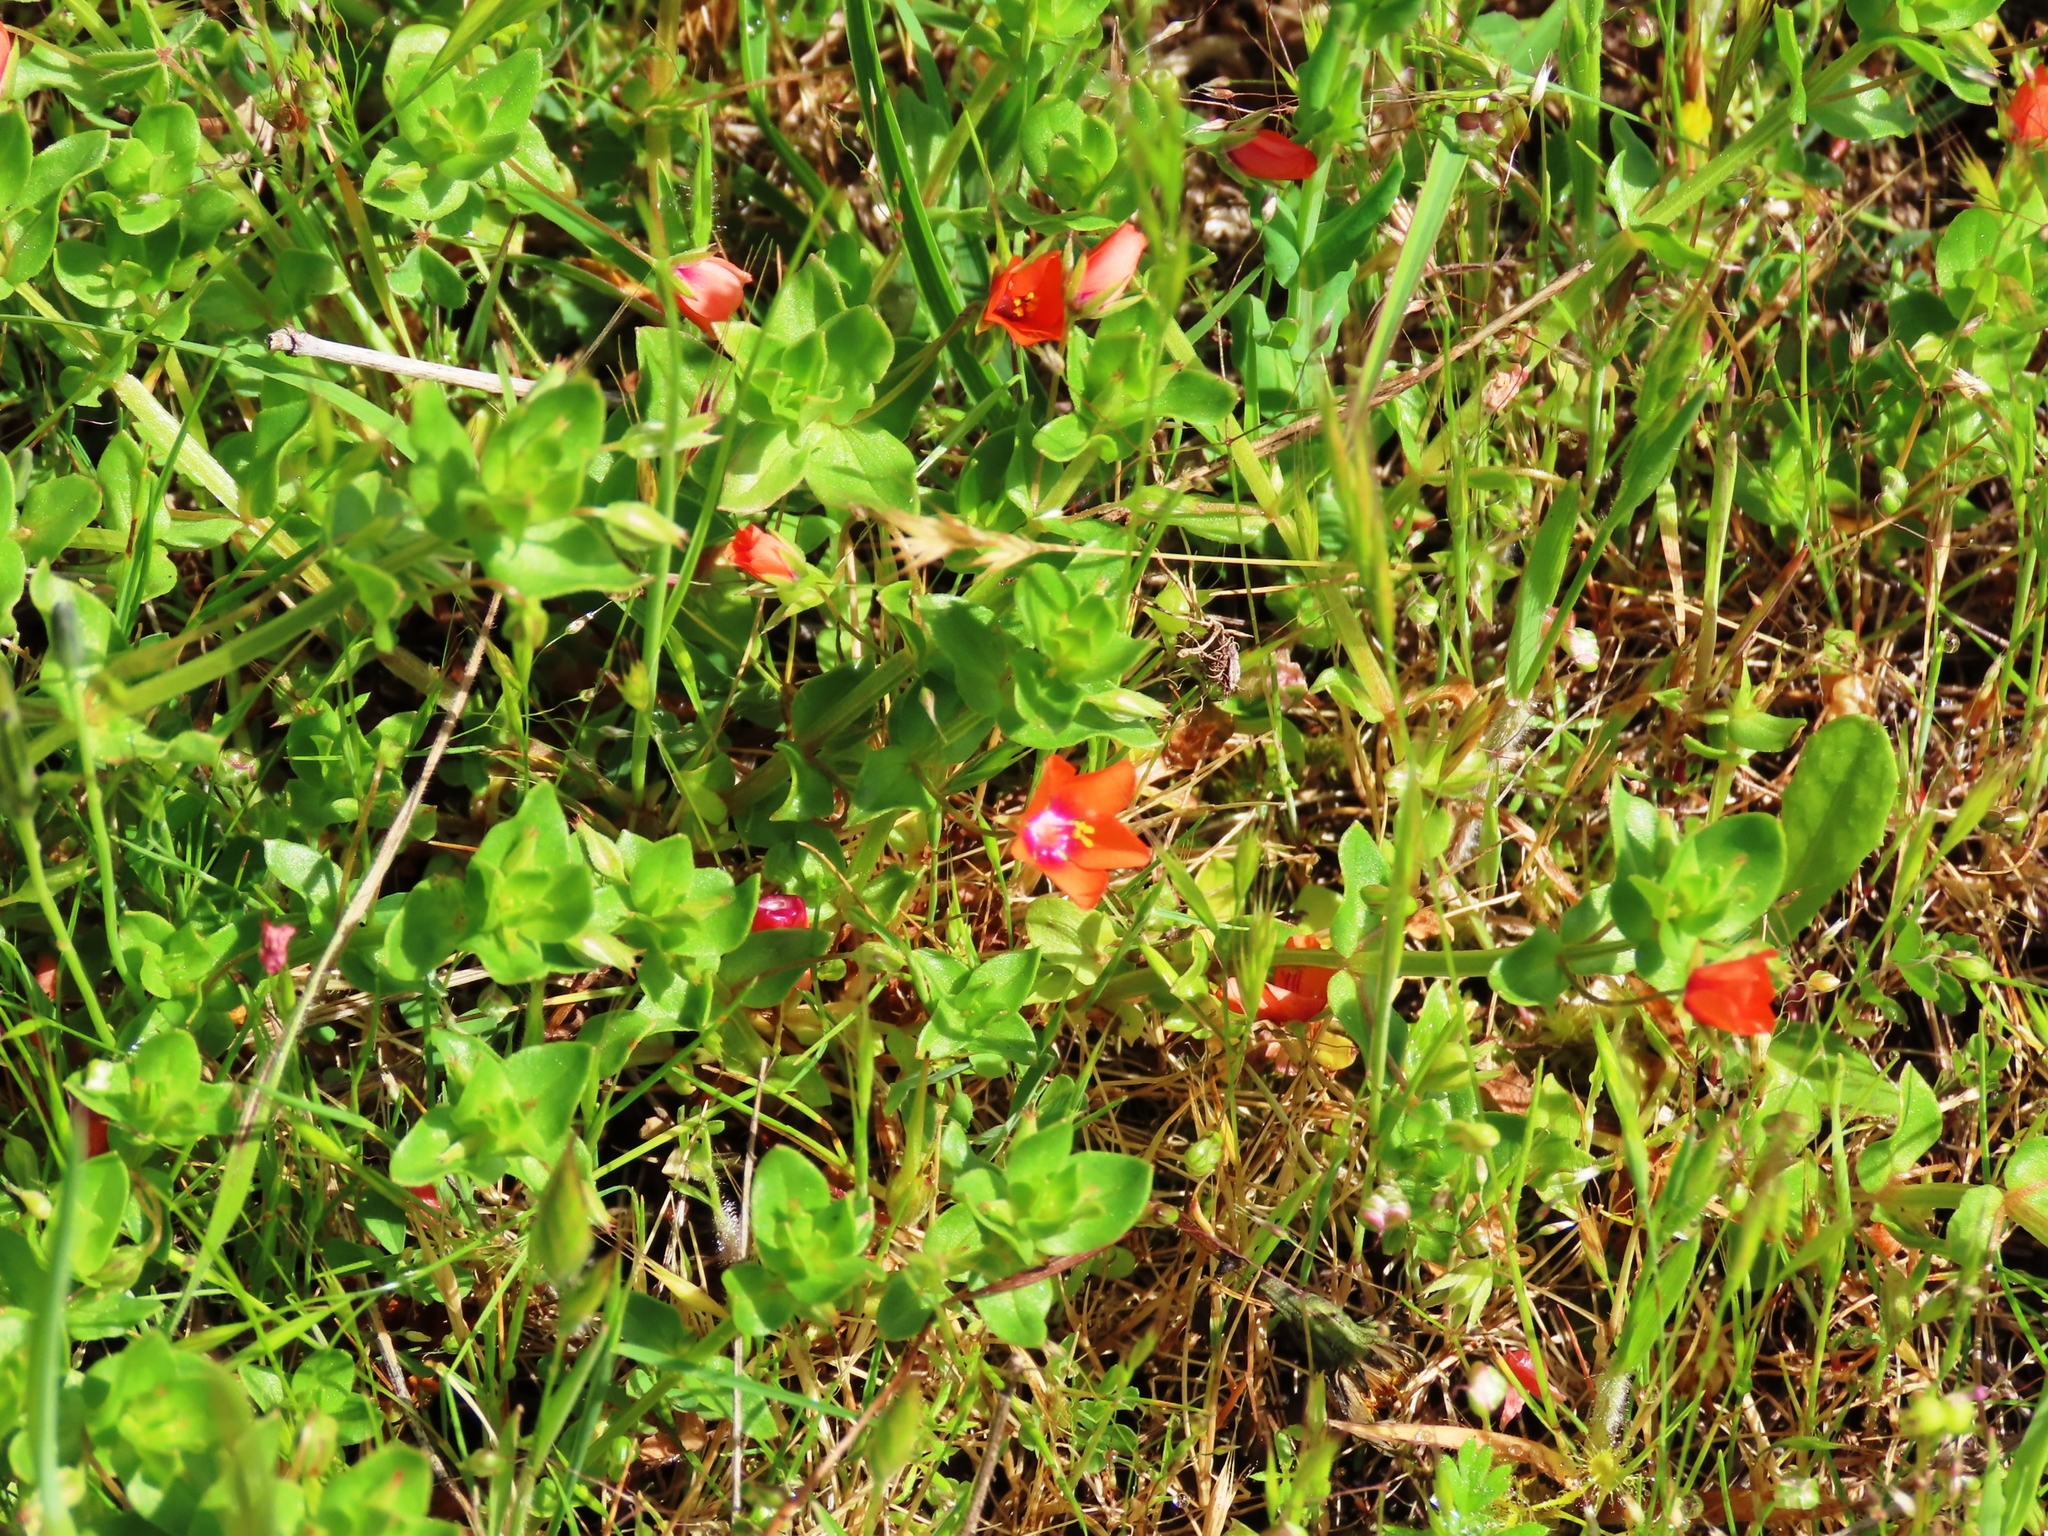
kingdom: Plantae
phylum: Tracheophyta
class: Magnoliopsida
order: Ericales
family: Primulaceae
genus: Lysimachia
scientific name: Lysimachia arvensis
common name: Scarlet pimpernel
